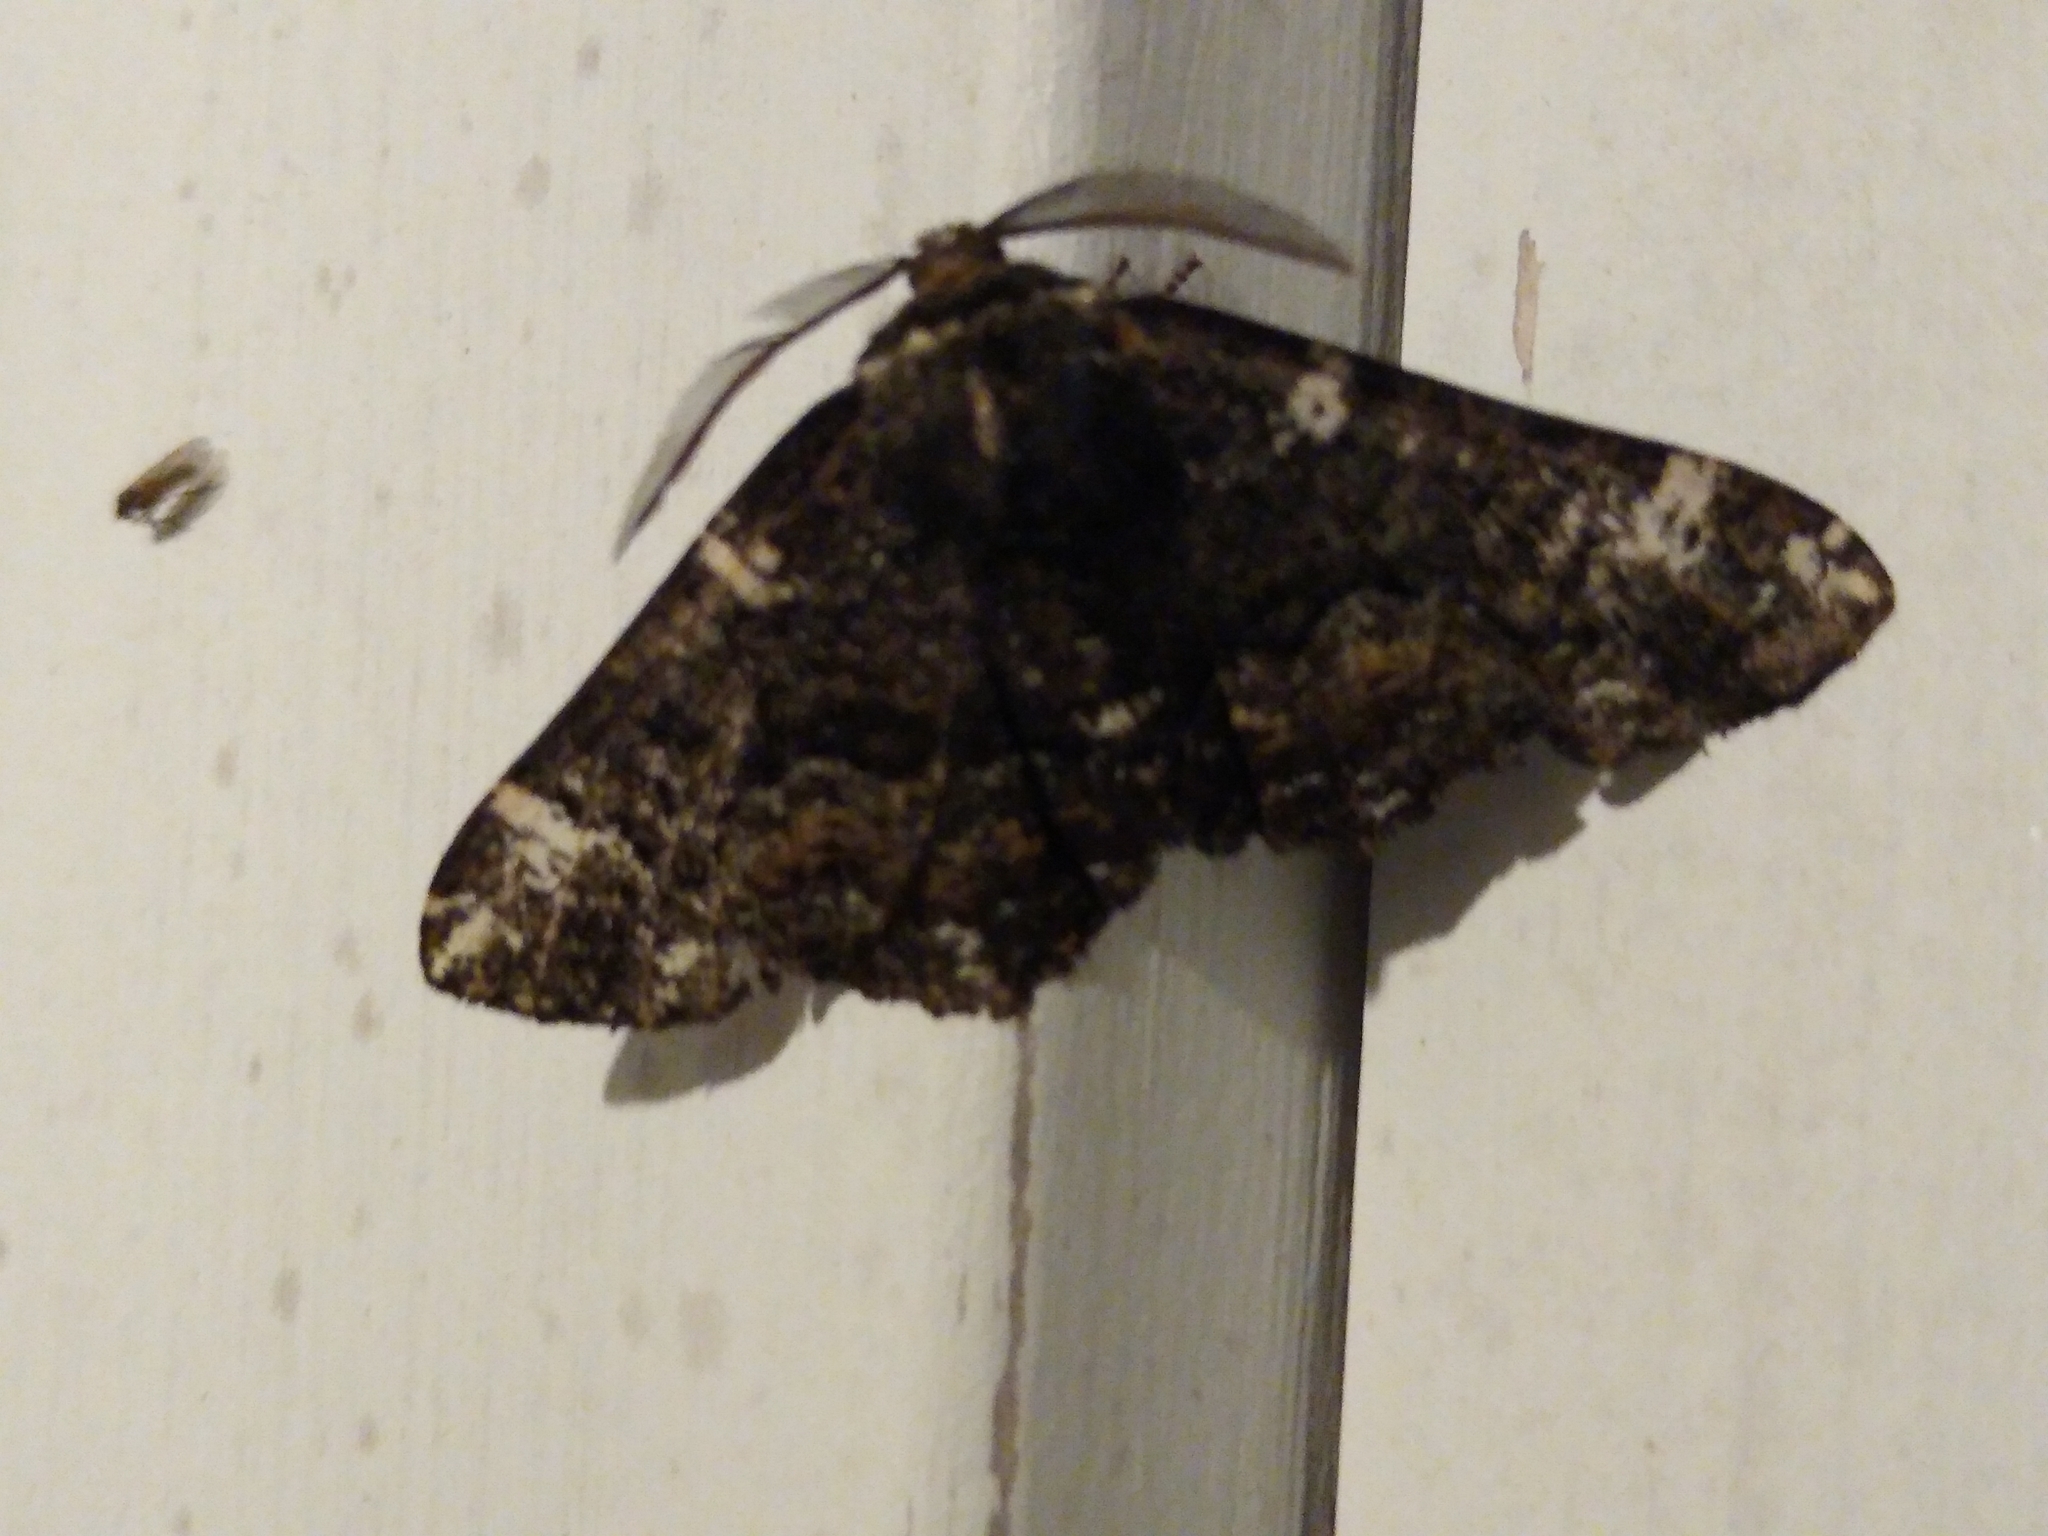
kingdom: Animalia
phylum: Arthropoda
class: Insecta
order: Lepidoptera
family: Geometridae
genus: Phaeoura
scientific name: Phaeoura quernaria
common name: Oak beauty
